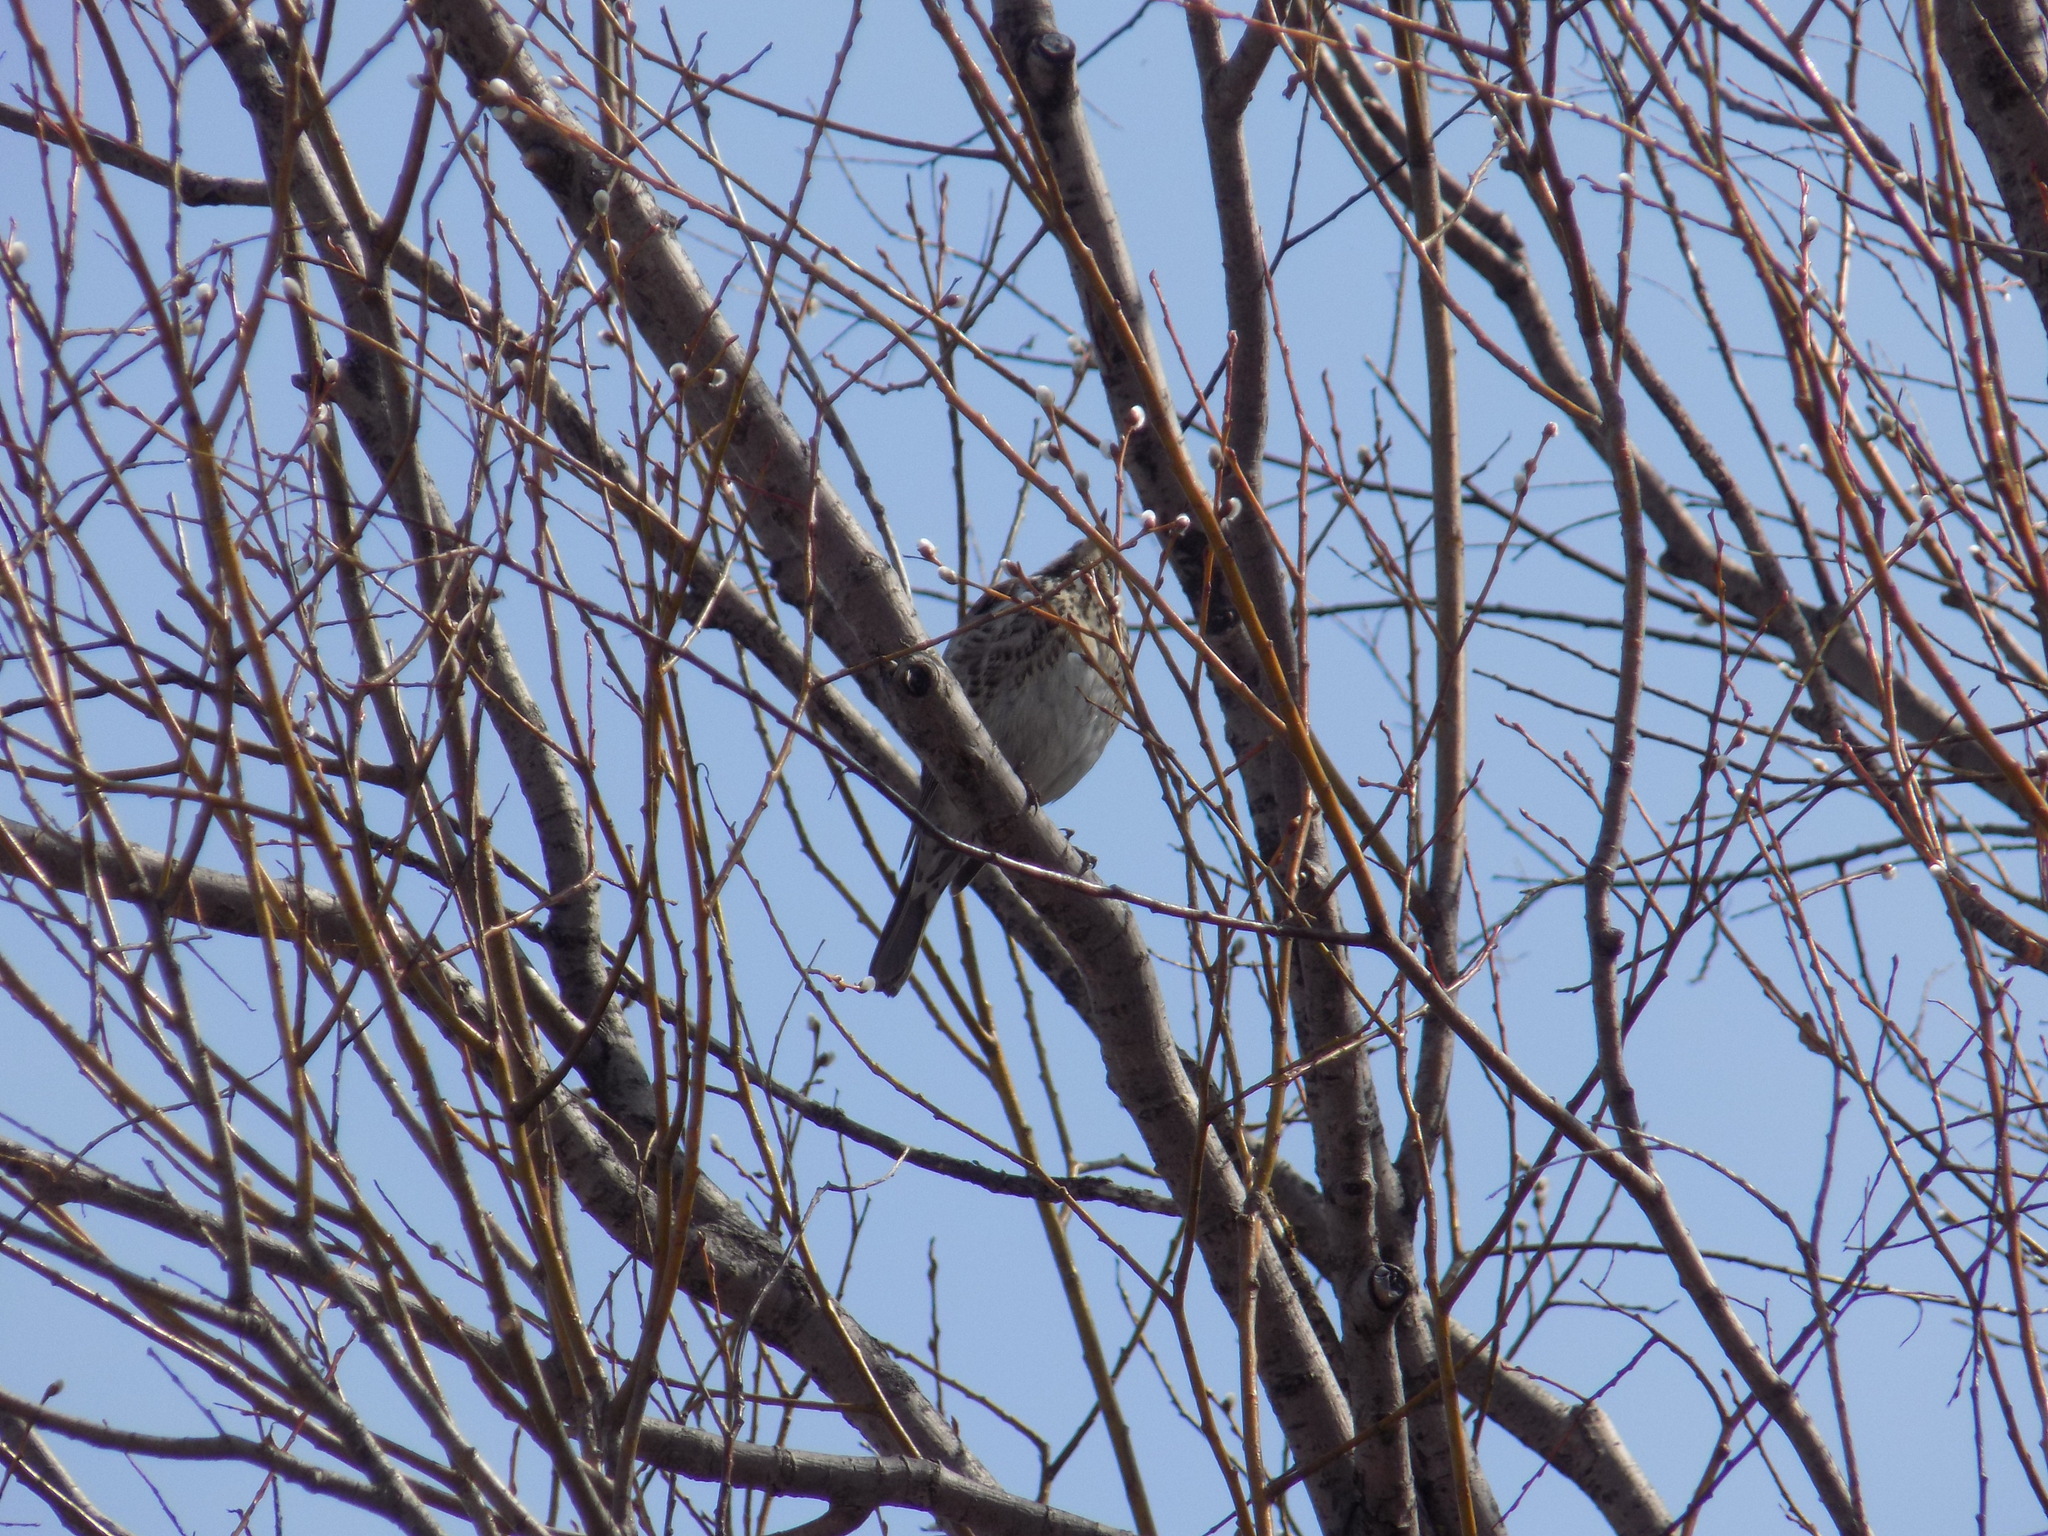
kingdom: Animalia
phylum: Chordata
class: Aves
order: Passeriformes
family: Turdidae
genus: Turdus
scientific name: Turdus pilaris
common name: Fieldfare
